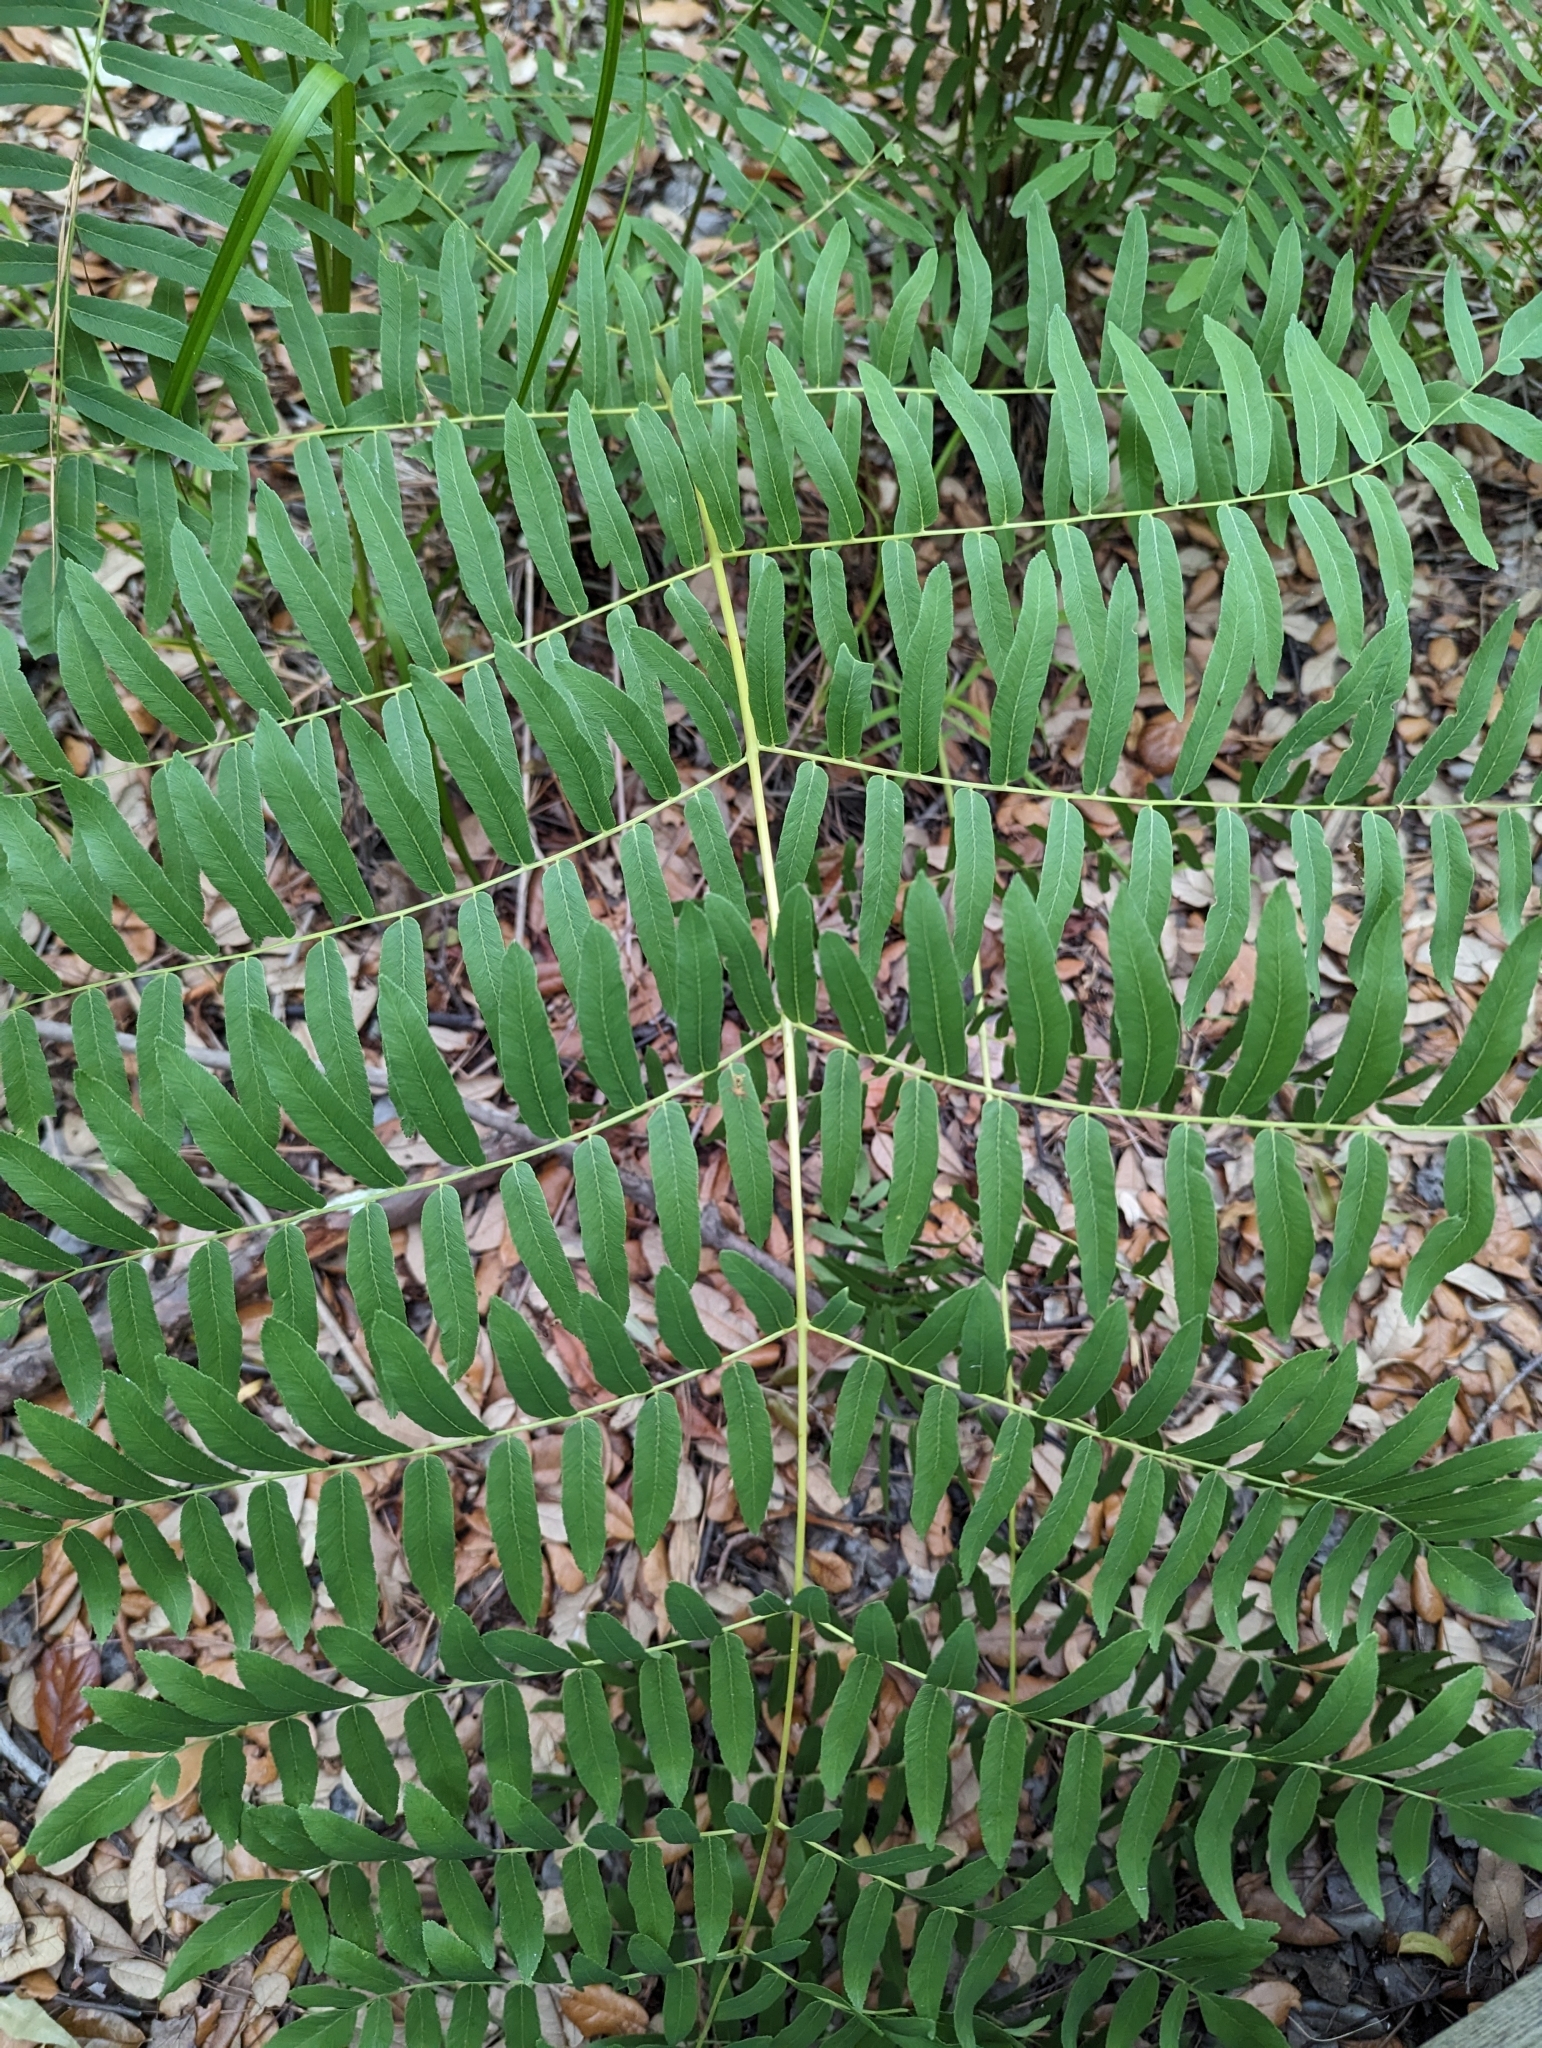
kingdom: Plantae
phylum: Tracheophyta
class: Polypodiopsida
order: Osmundales
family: Osmundaceae
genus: Osmunda
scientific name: Osmunda spectabilis
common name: American royal fern
